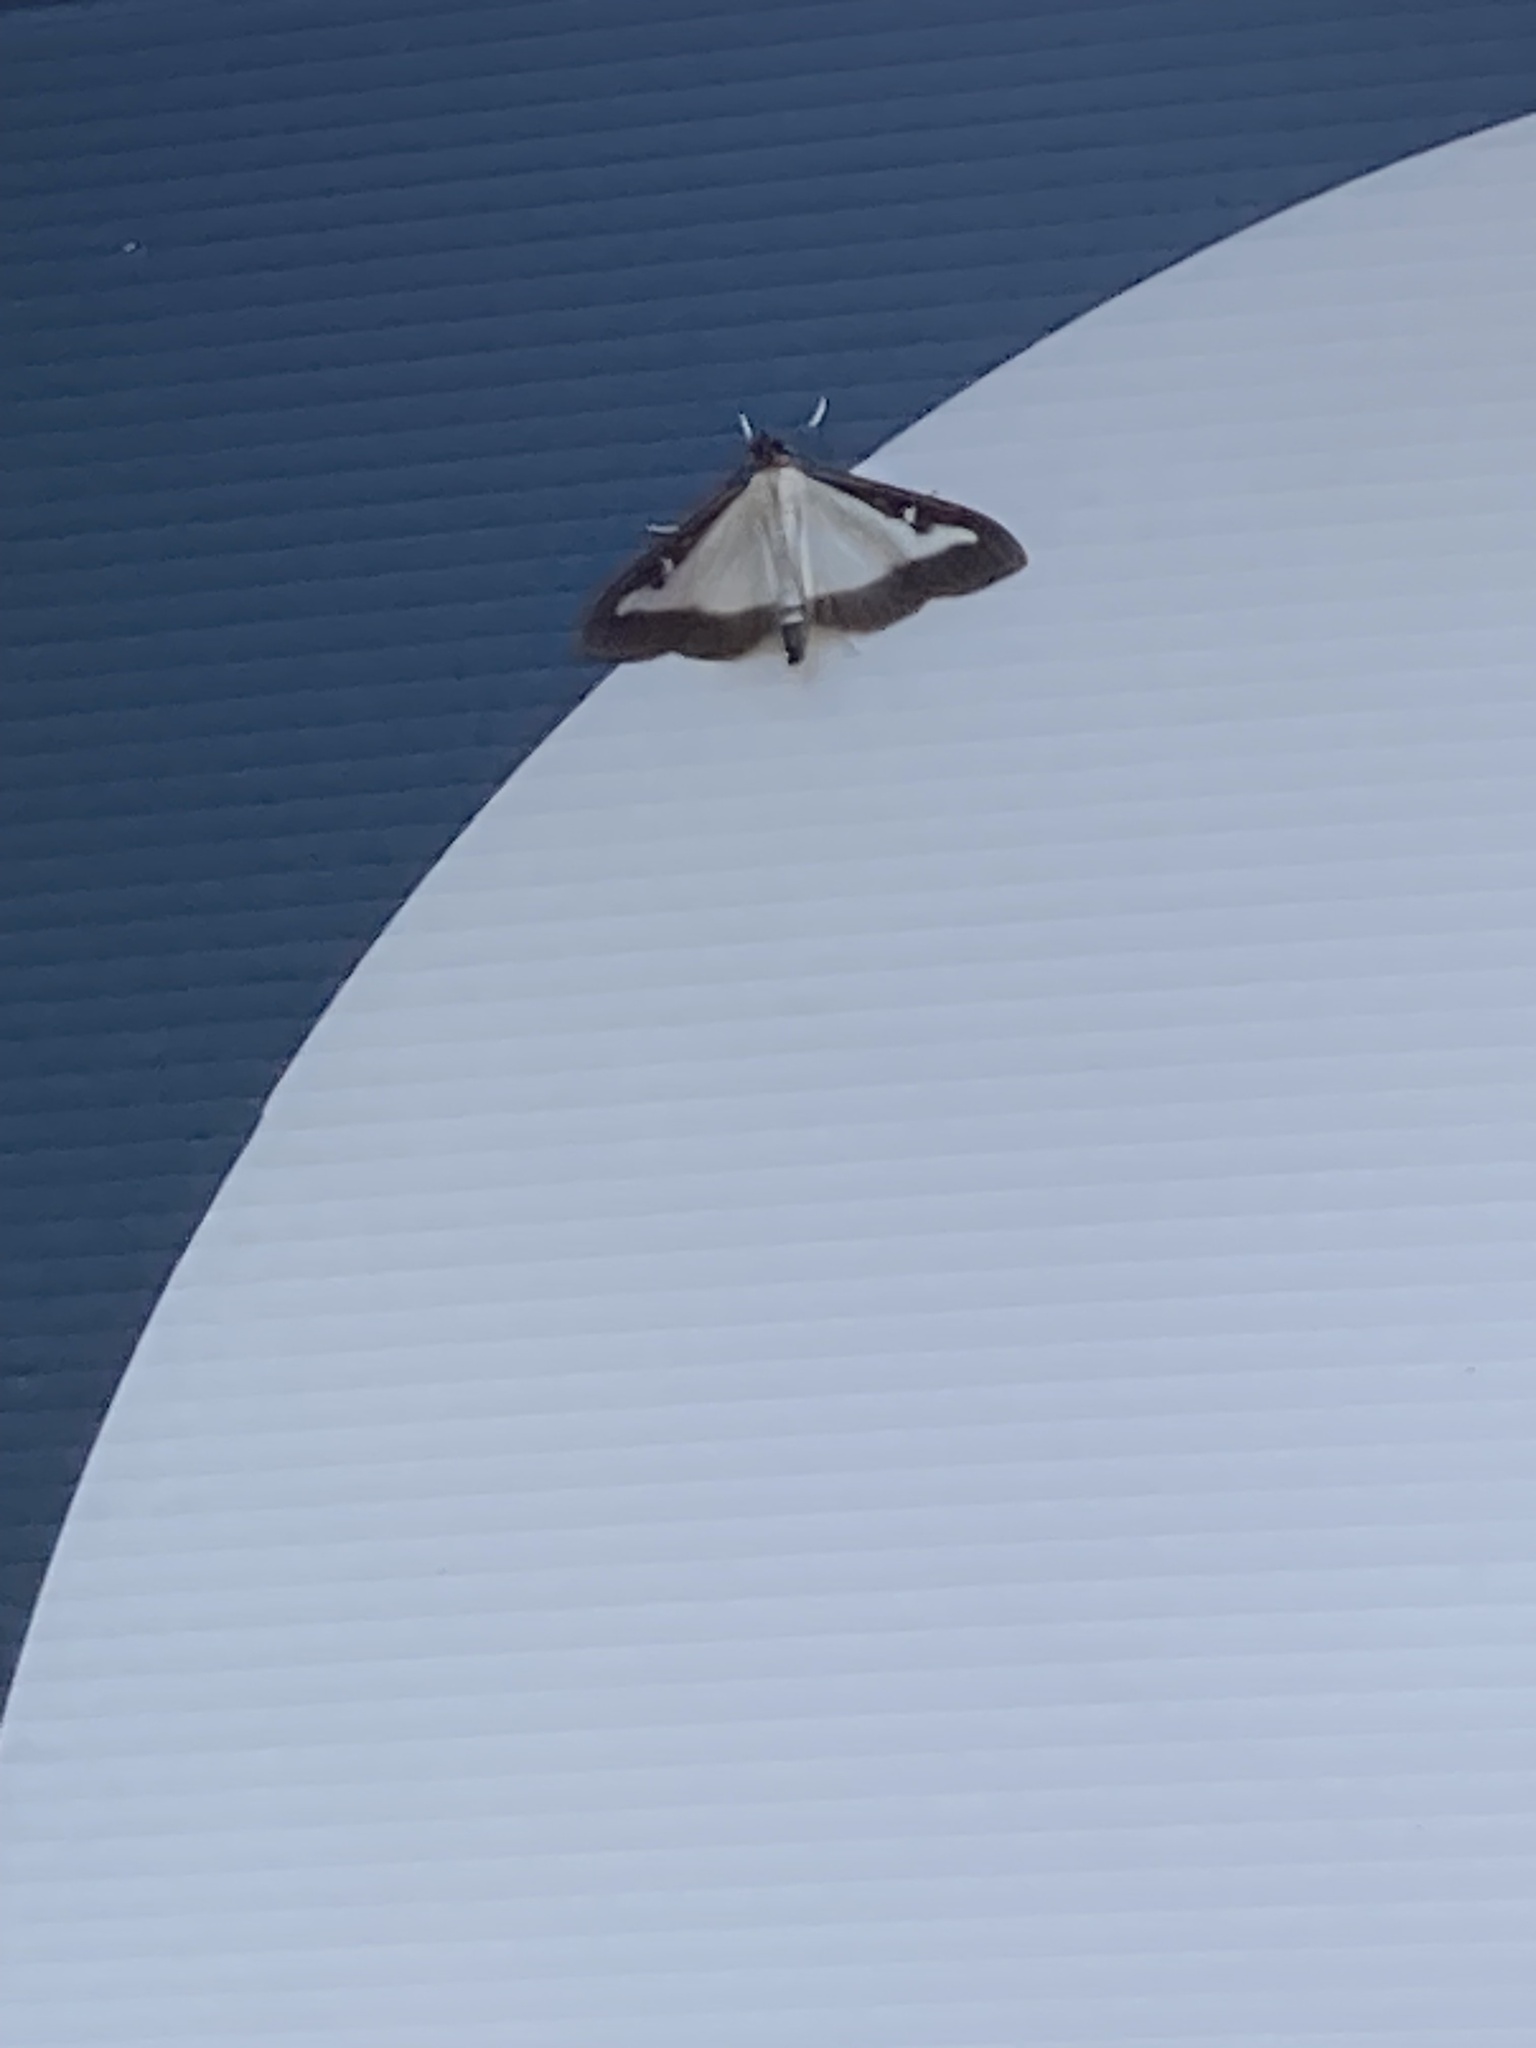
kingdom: Animalia
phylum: Arthropoda
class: Insecta
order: Lepidoptera
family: Crambidae
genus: Cydalima
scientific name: Cydalima perspectalis
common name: Box tree moth
